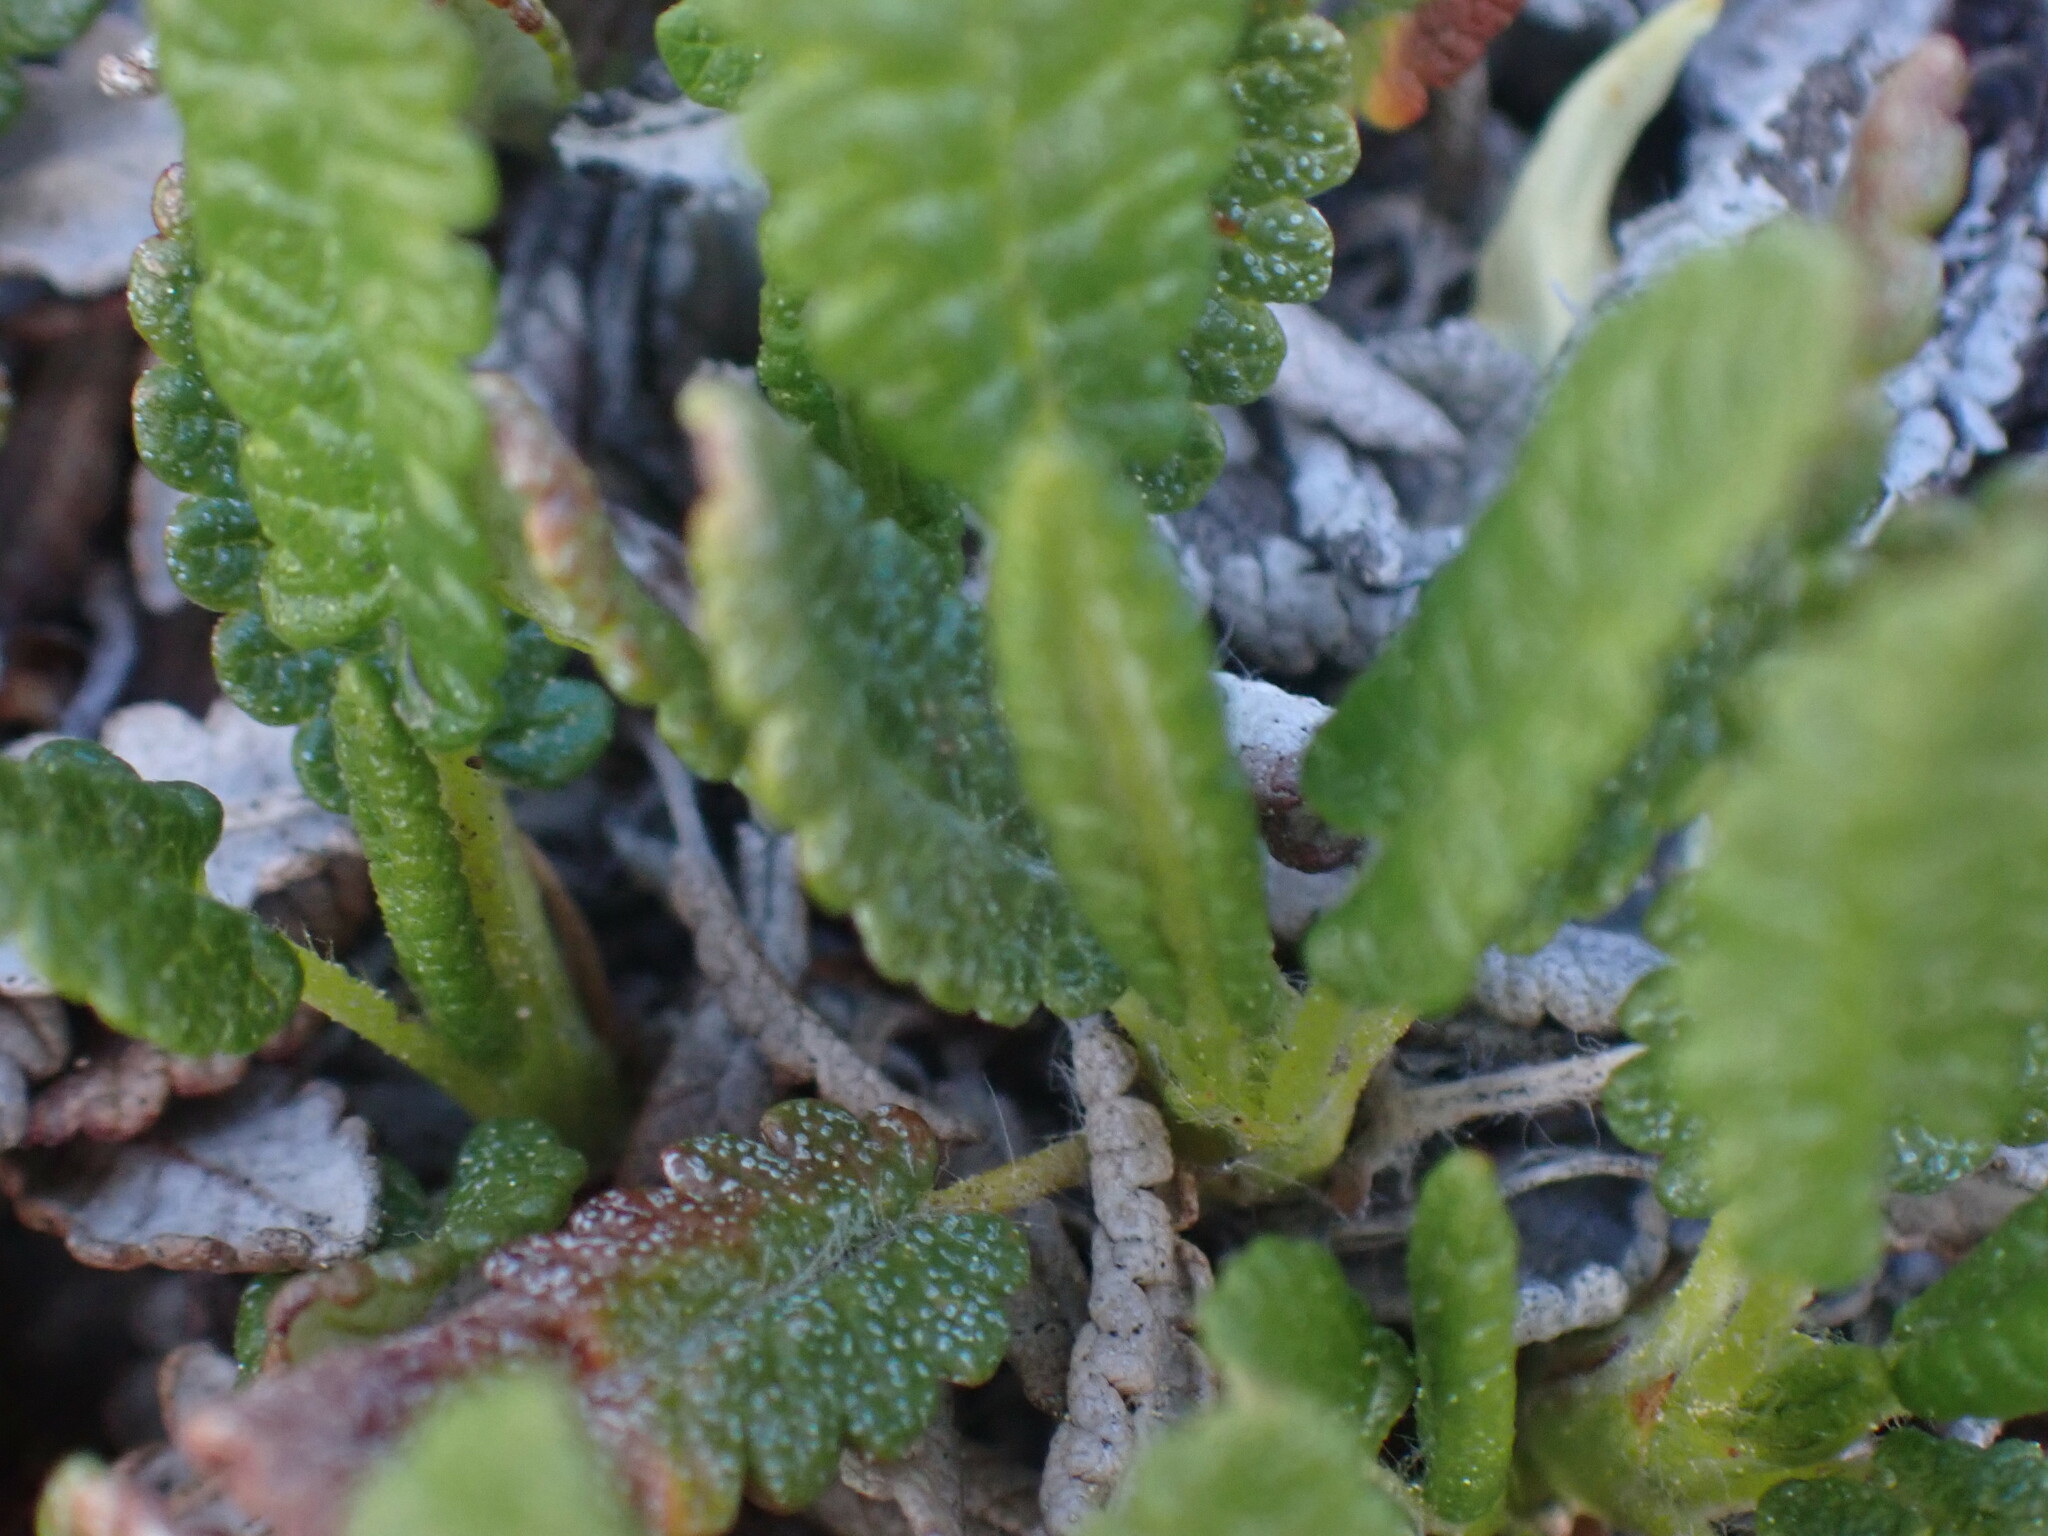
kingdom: Plantae
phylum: Tracheophyta
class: Magnoliopsida
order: Rosales
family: Rosaceae
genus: Dryas
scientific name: Dryas octopetala
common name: Eight-petal mountain-avens
